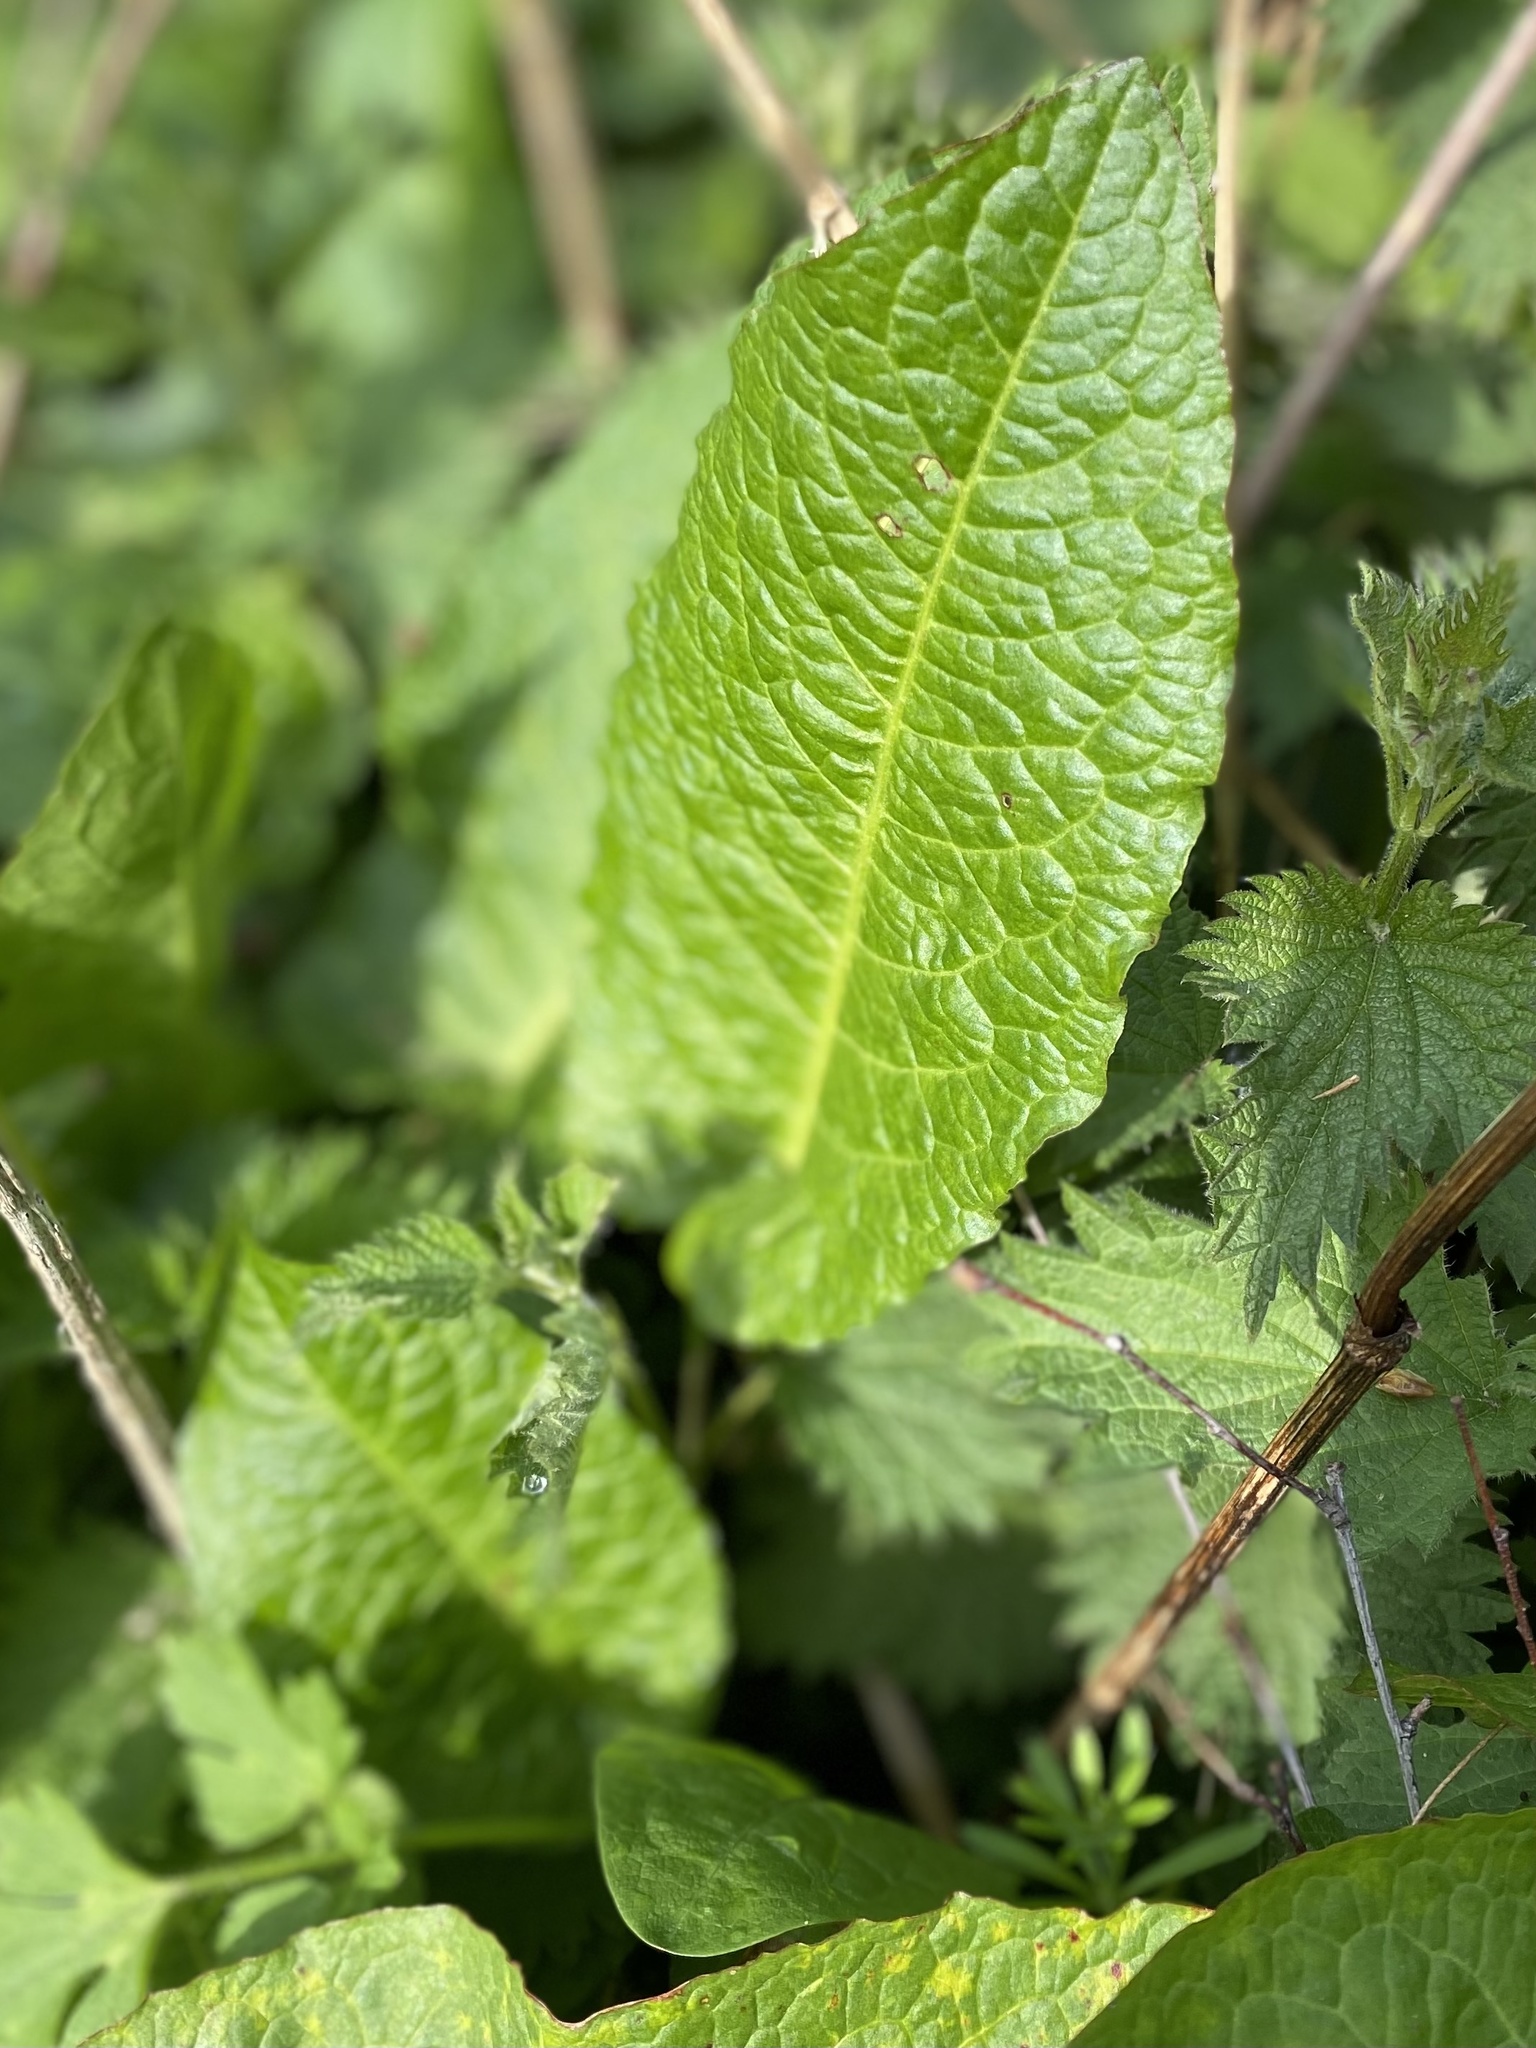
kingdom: Plantae
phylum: Tracheophyta
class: Magnoliopsida
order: Caryophyllales
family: Polygonaceae
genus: Rumex
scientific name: Rumex obtusifolius
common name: Bitter dock
